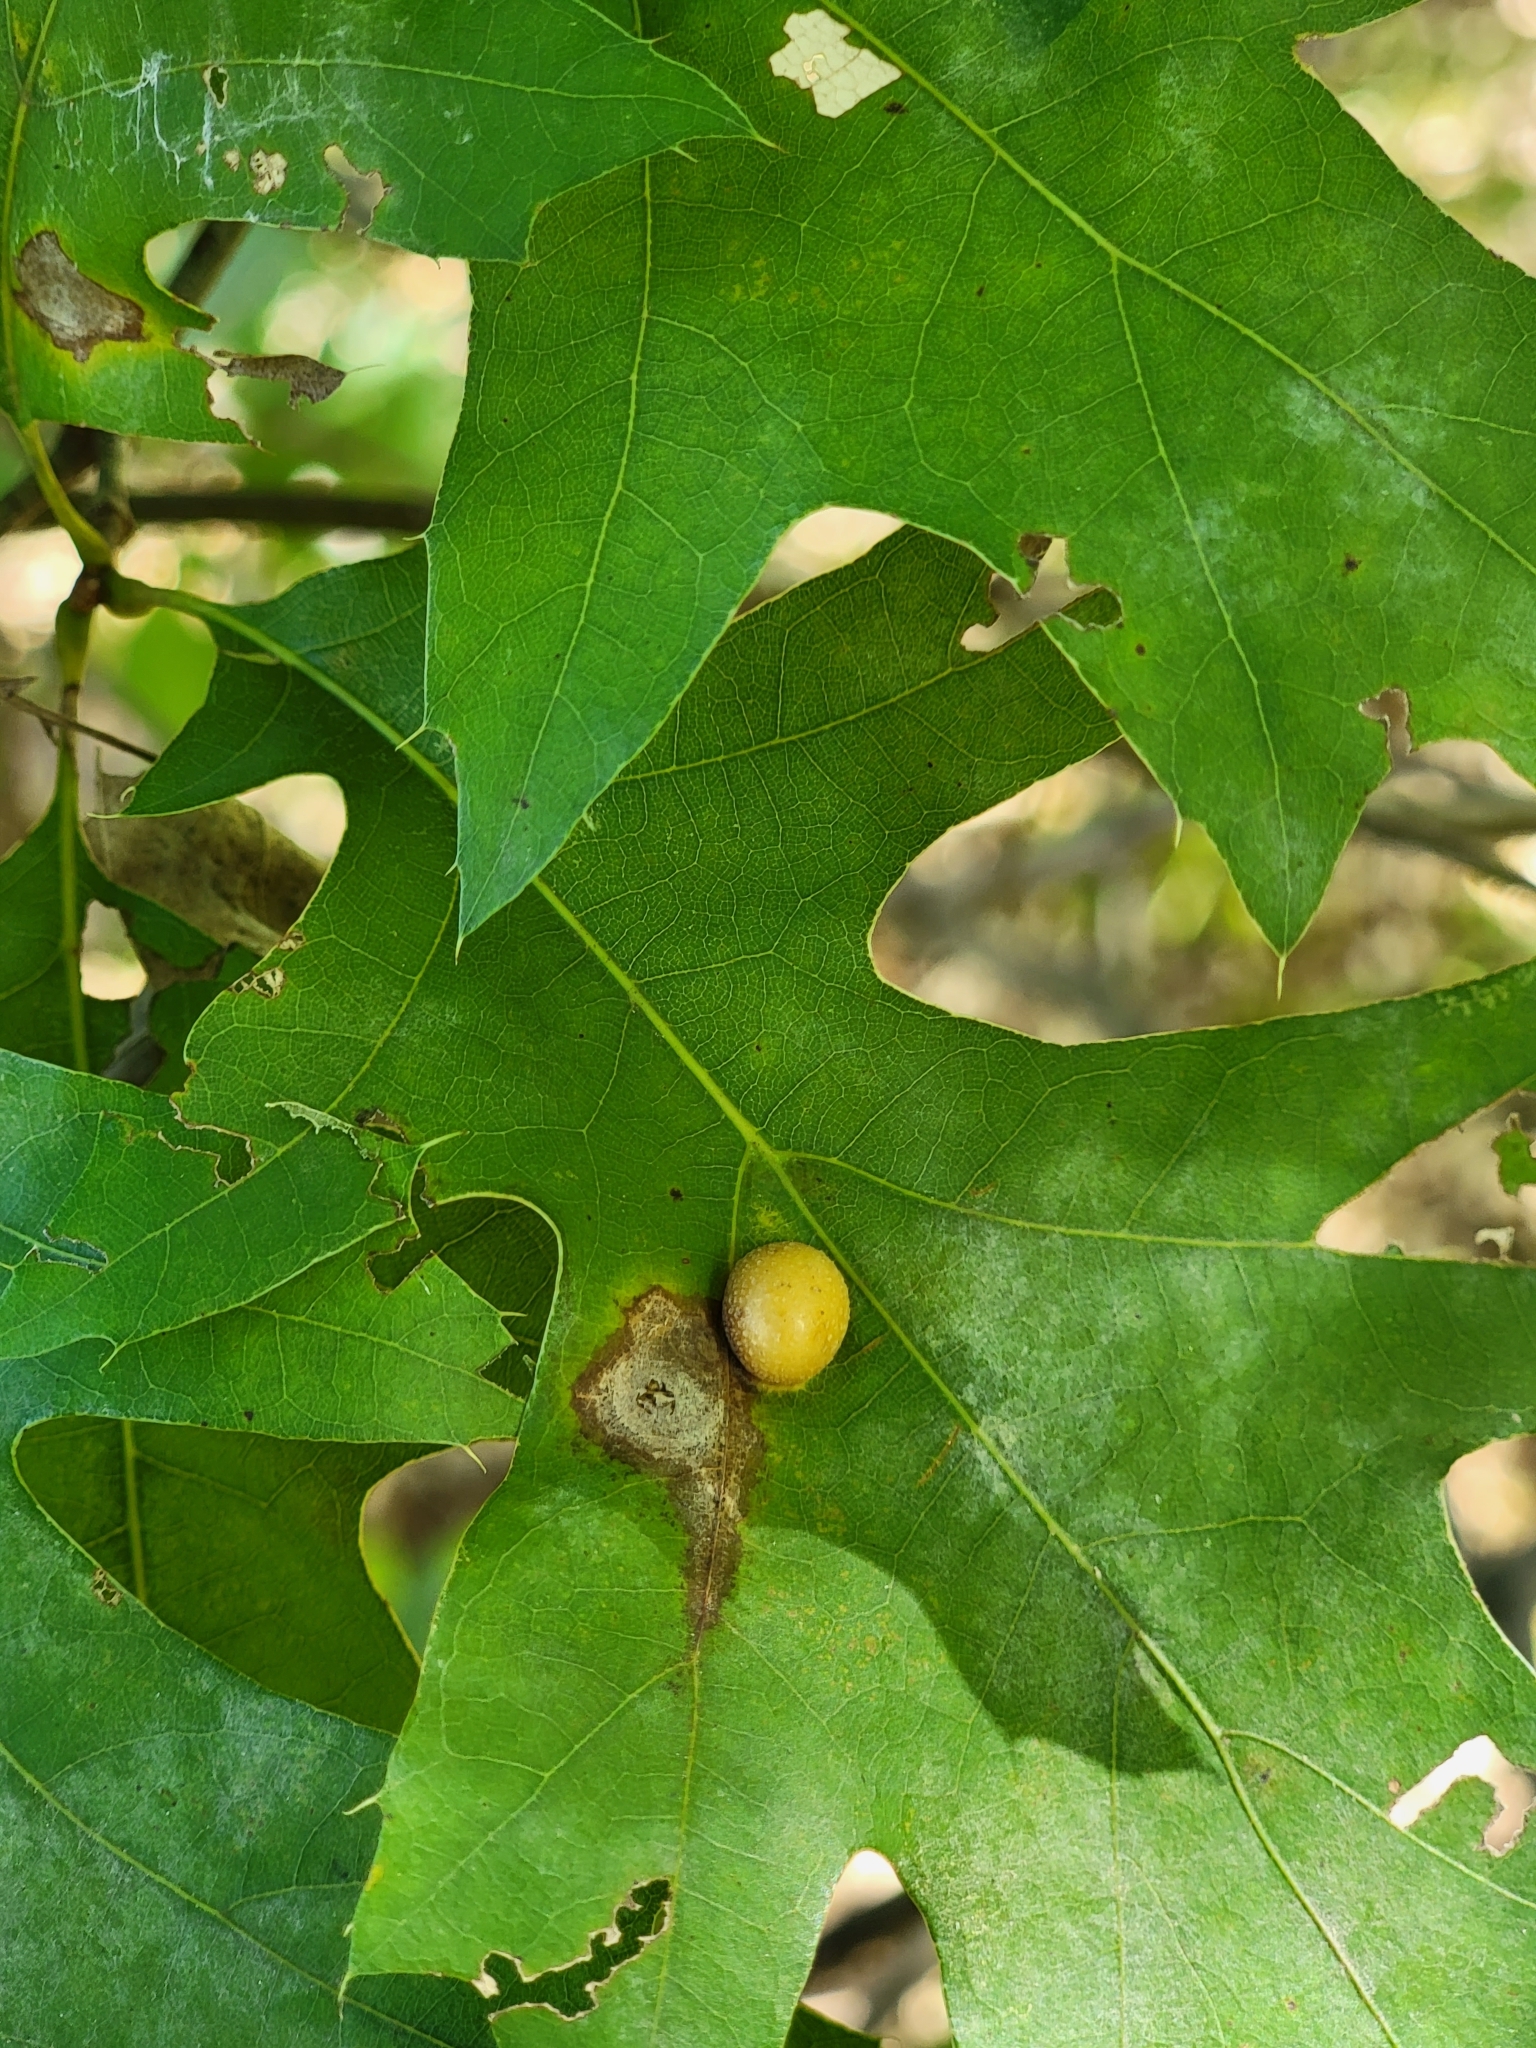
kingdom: Animalia
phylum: Arthropoda
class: Insecta
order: Diptera
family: Cecidomyiidae
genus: Polystepha
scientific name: Polystepha pilulae
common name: Oak leaf gall midge
